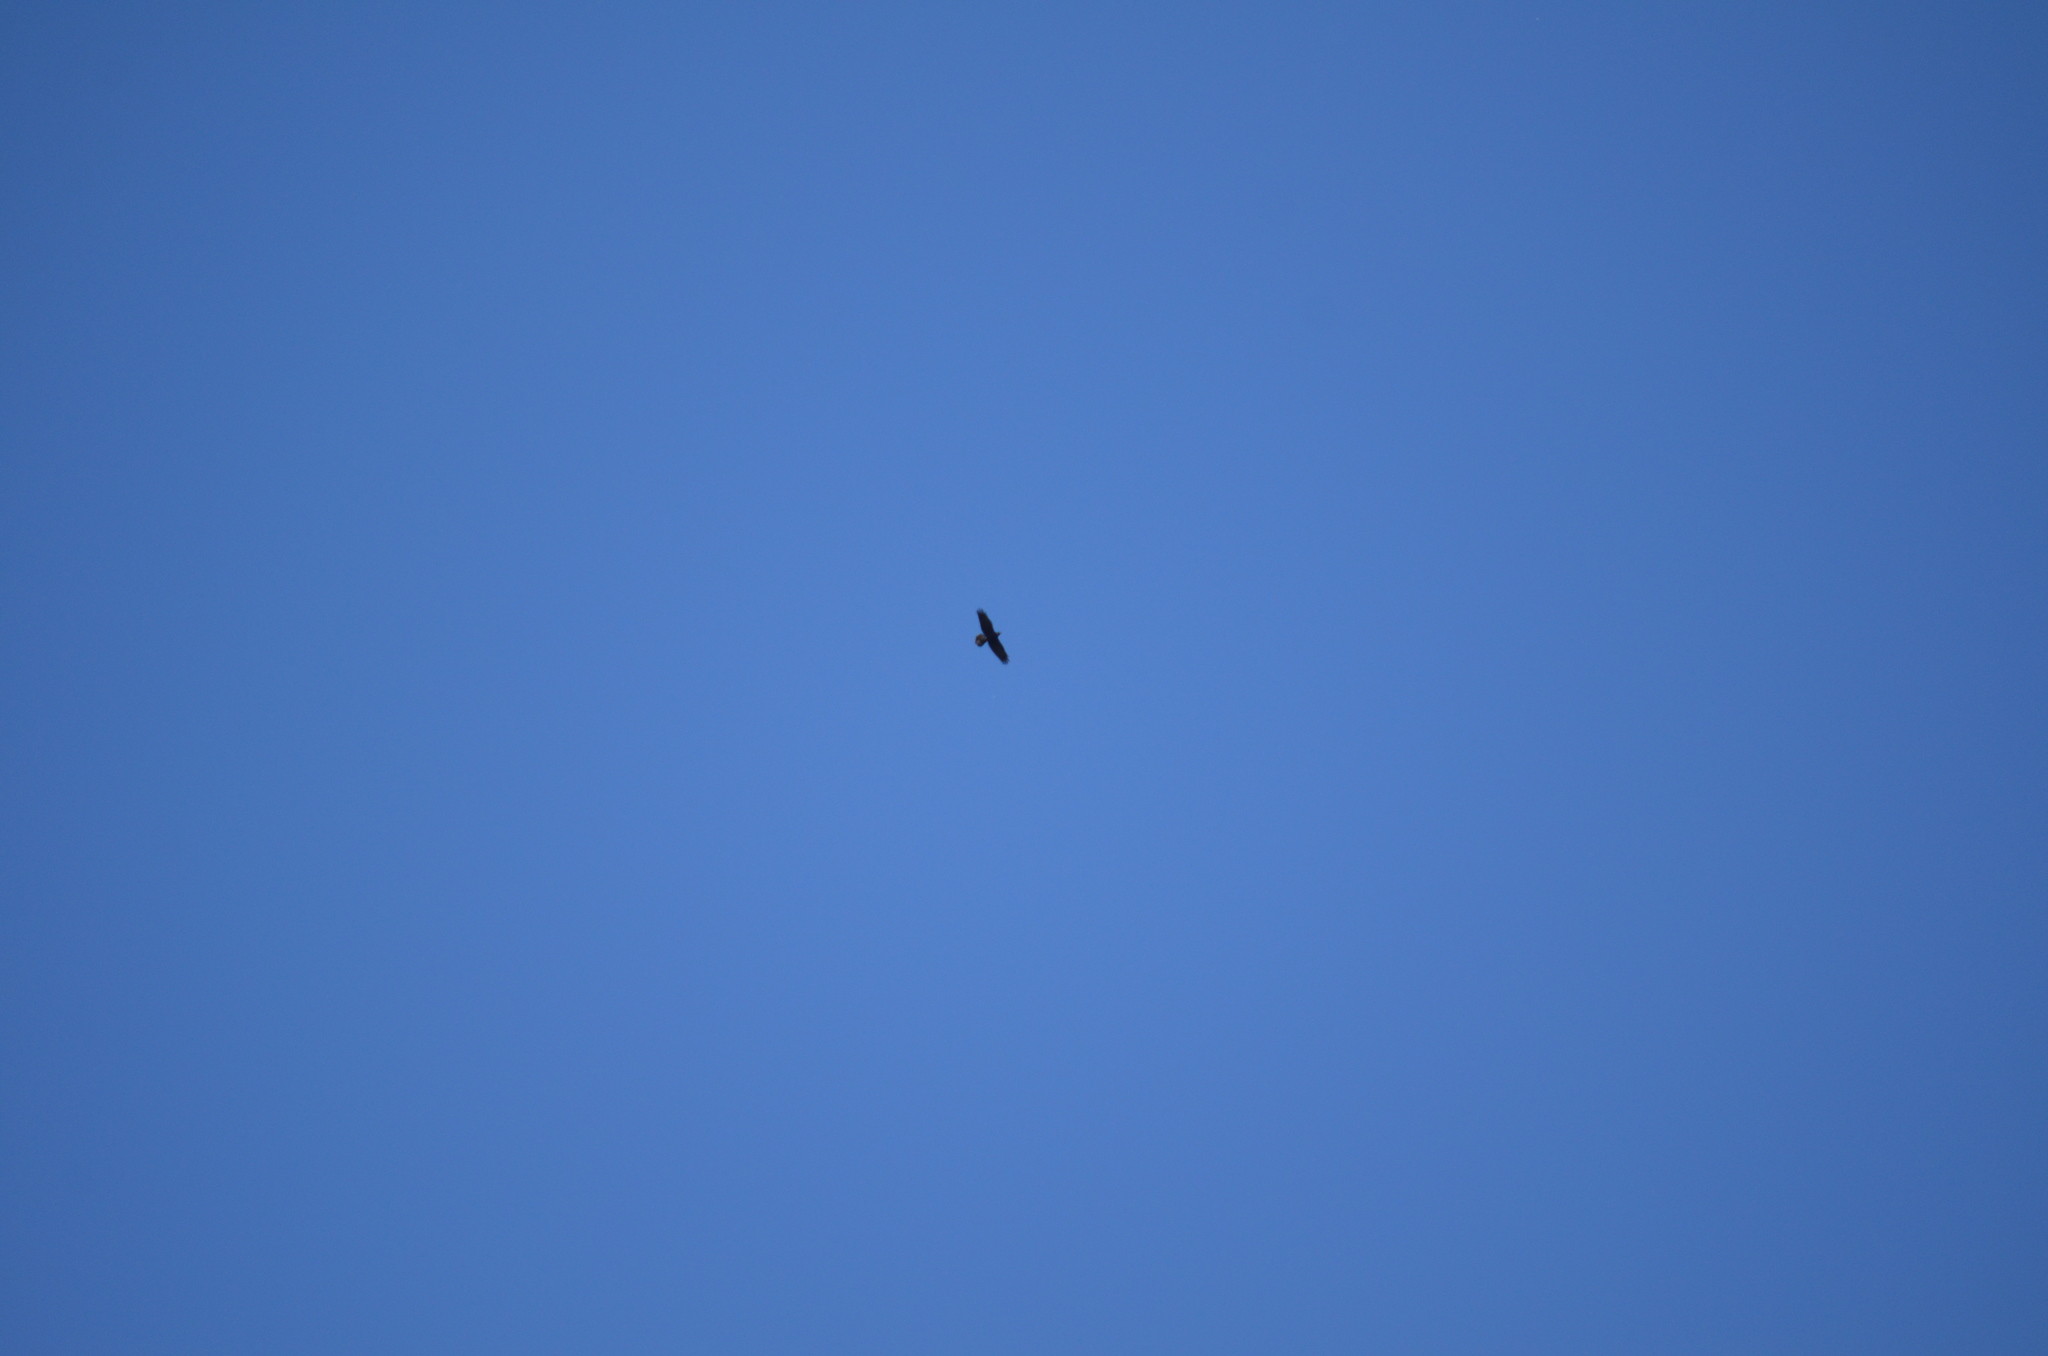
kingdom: Animalia
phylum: Chordata
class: Aves
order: Accipitriformes
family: Accipitridae
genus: Buteo
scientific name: Buteo jamaicensis
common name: Red-tailed hawk
